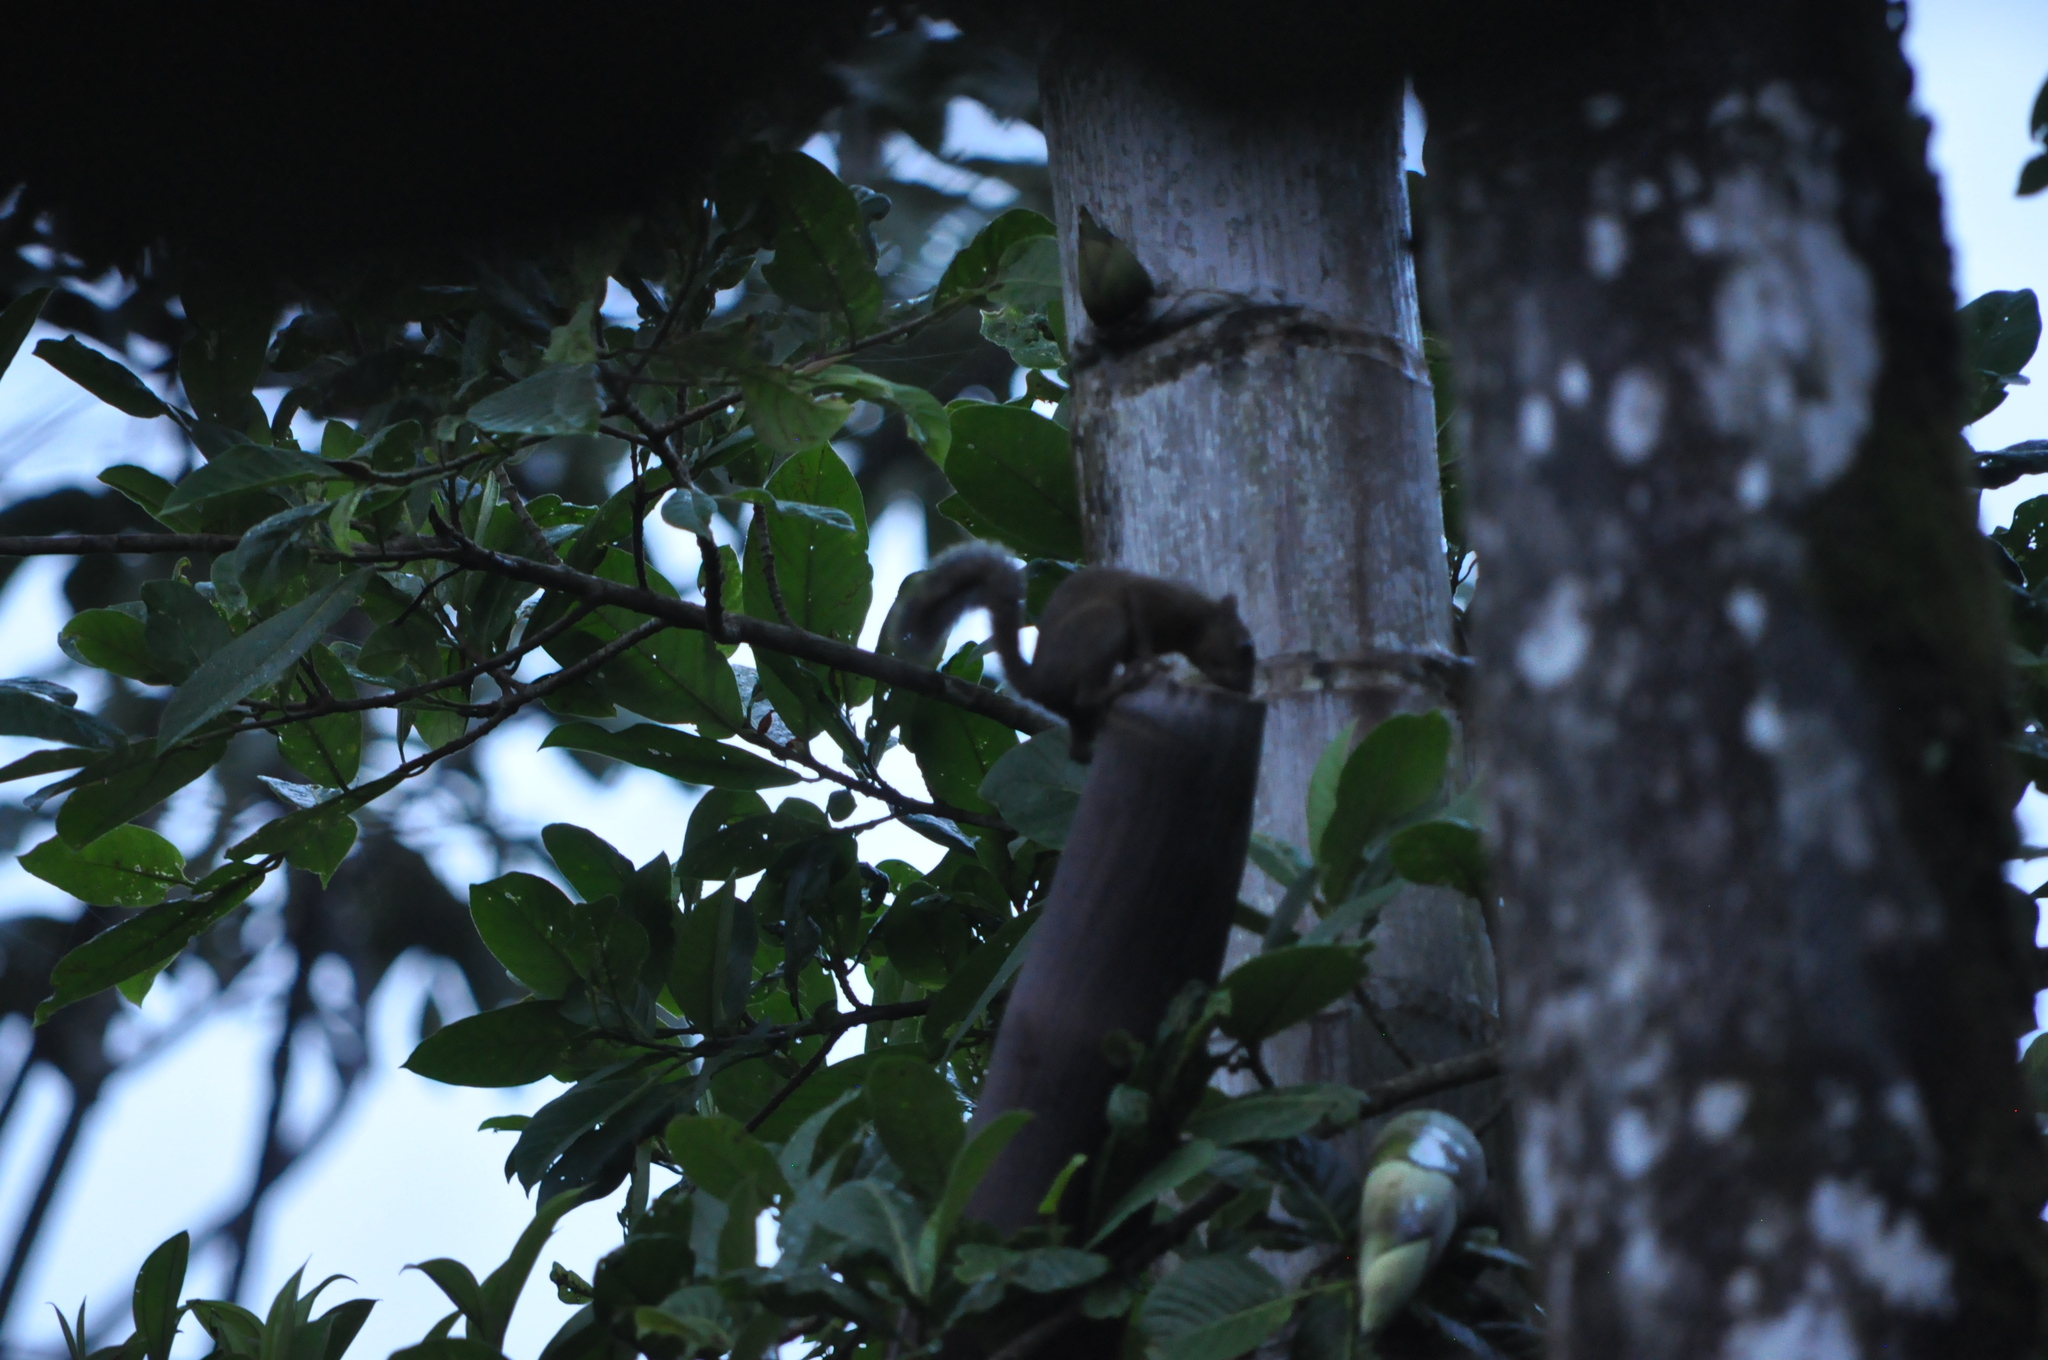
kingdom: Animalia
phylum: Chordata
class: Mammalia
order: Rodentia
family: Sciuridae
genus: Sciurus
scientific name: Sciurus variegatoides
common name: Variegated squirrel
